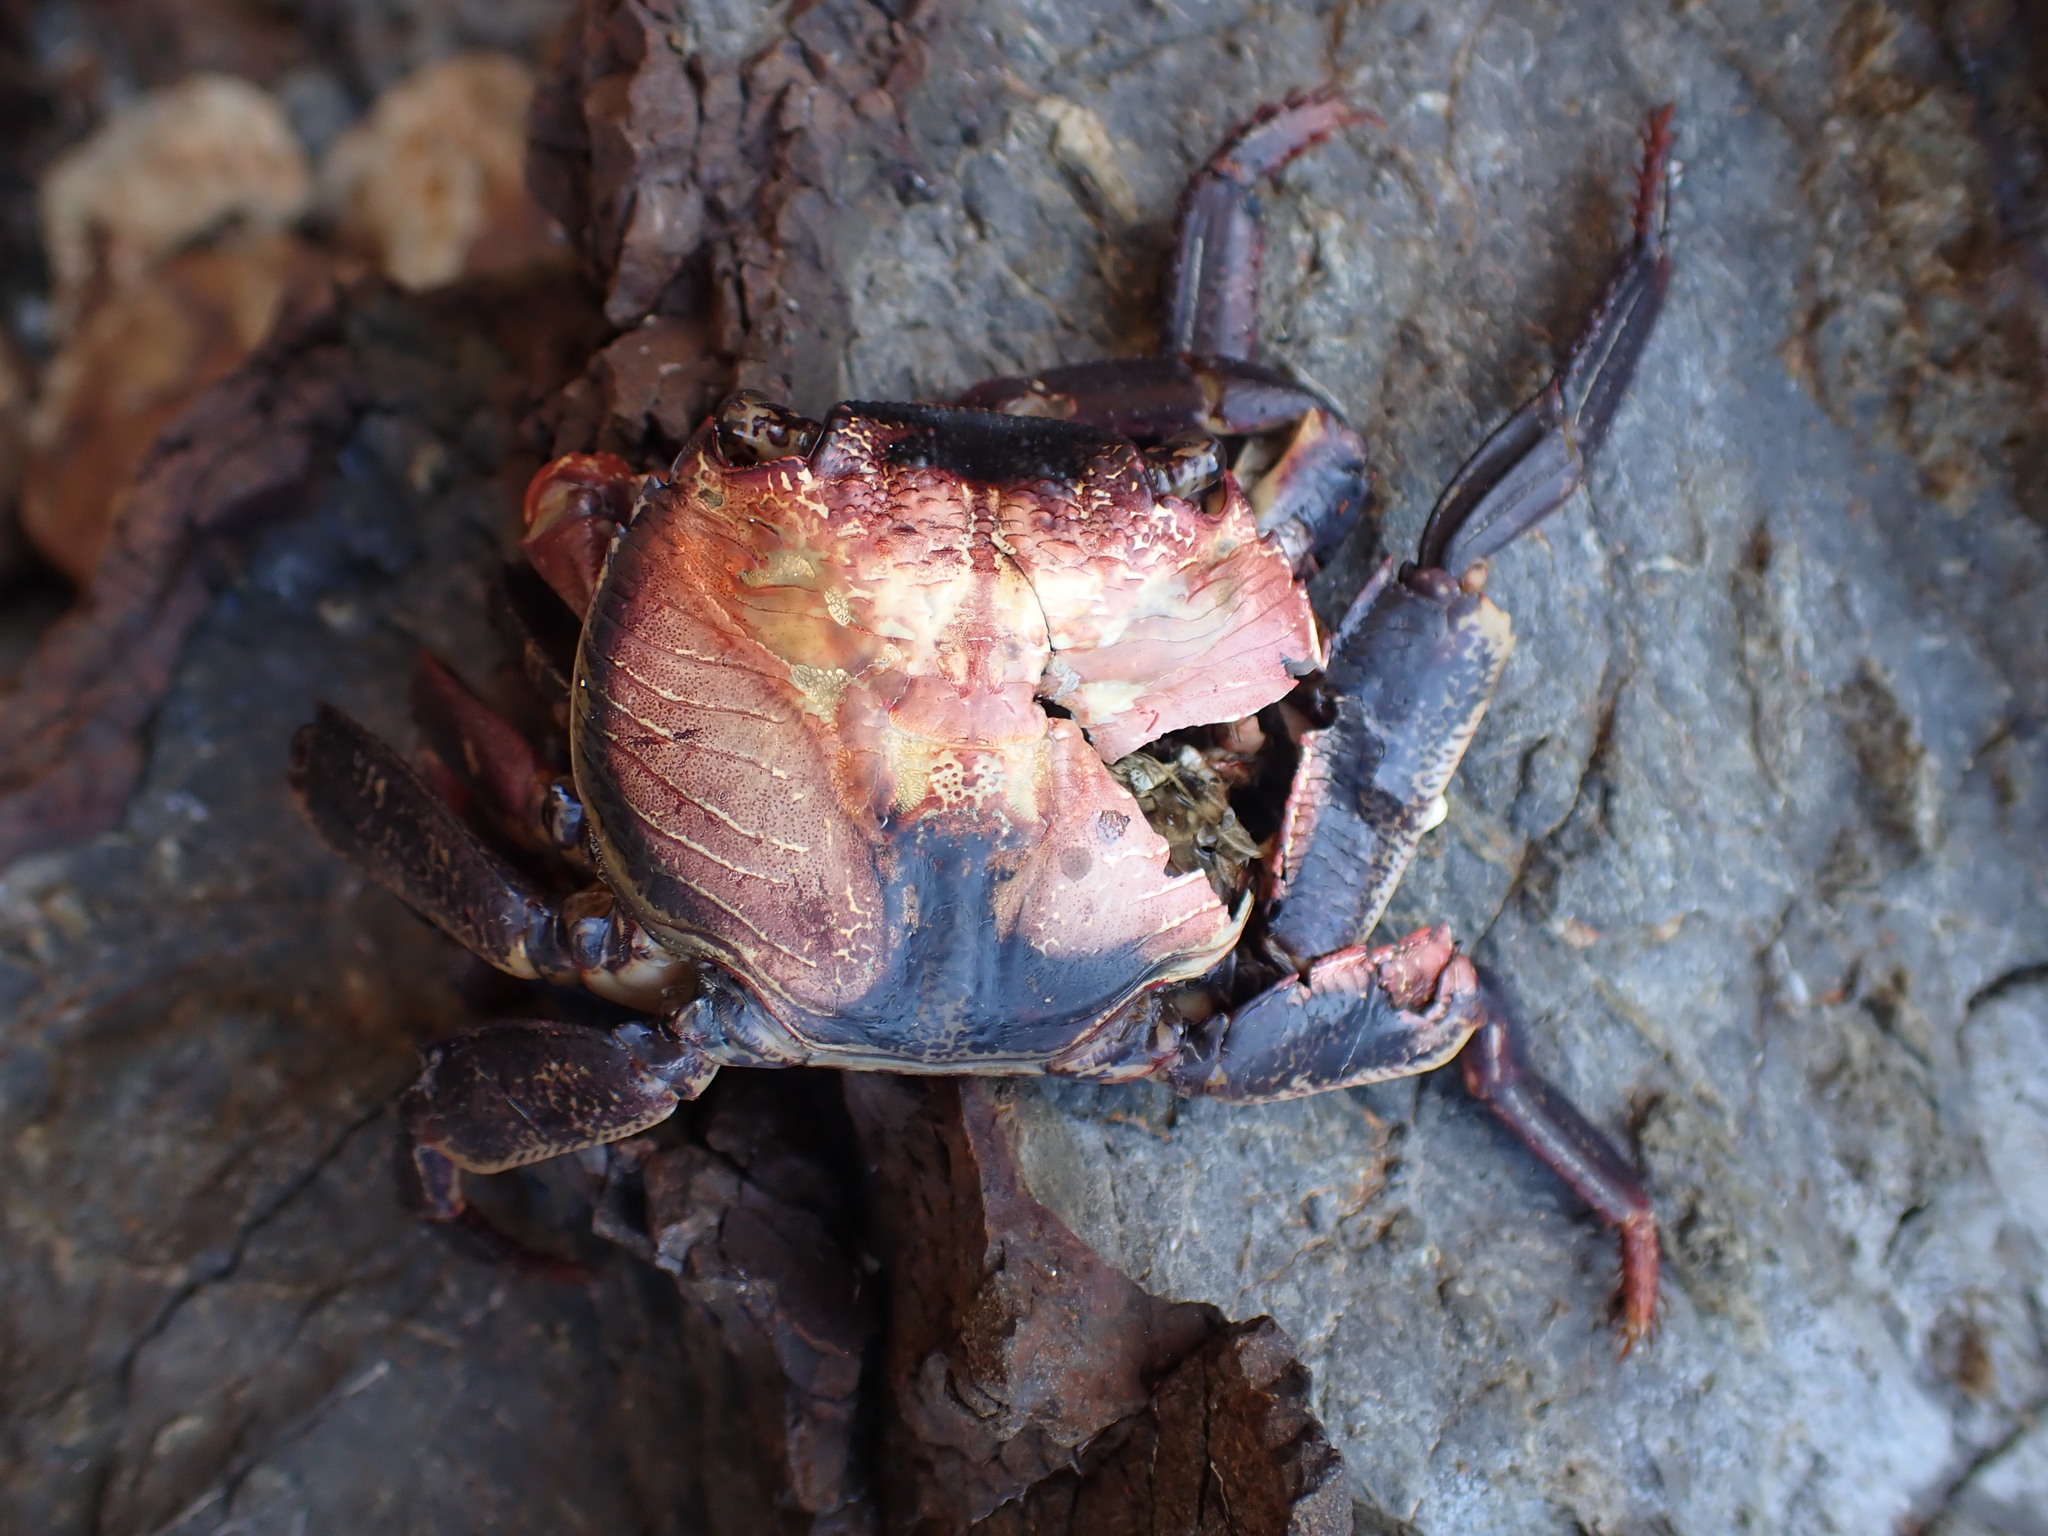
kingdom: Animalia
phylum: Arthropoda
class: Malacostraca
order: Decapoda
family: Grapsidae
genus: Leptograpsus
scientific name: Leptograpsus variegatus
